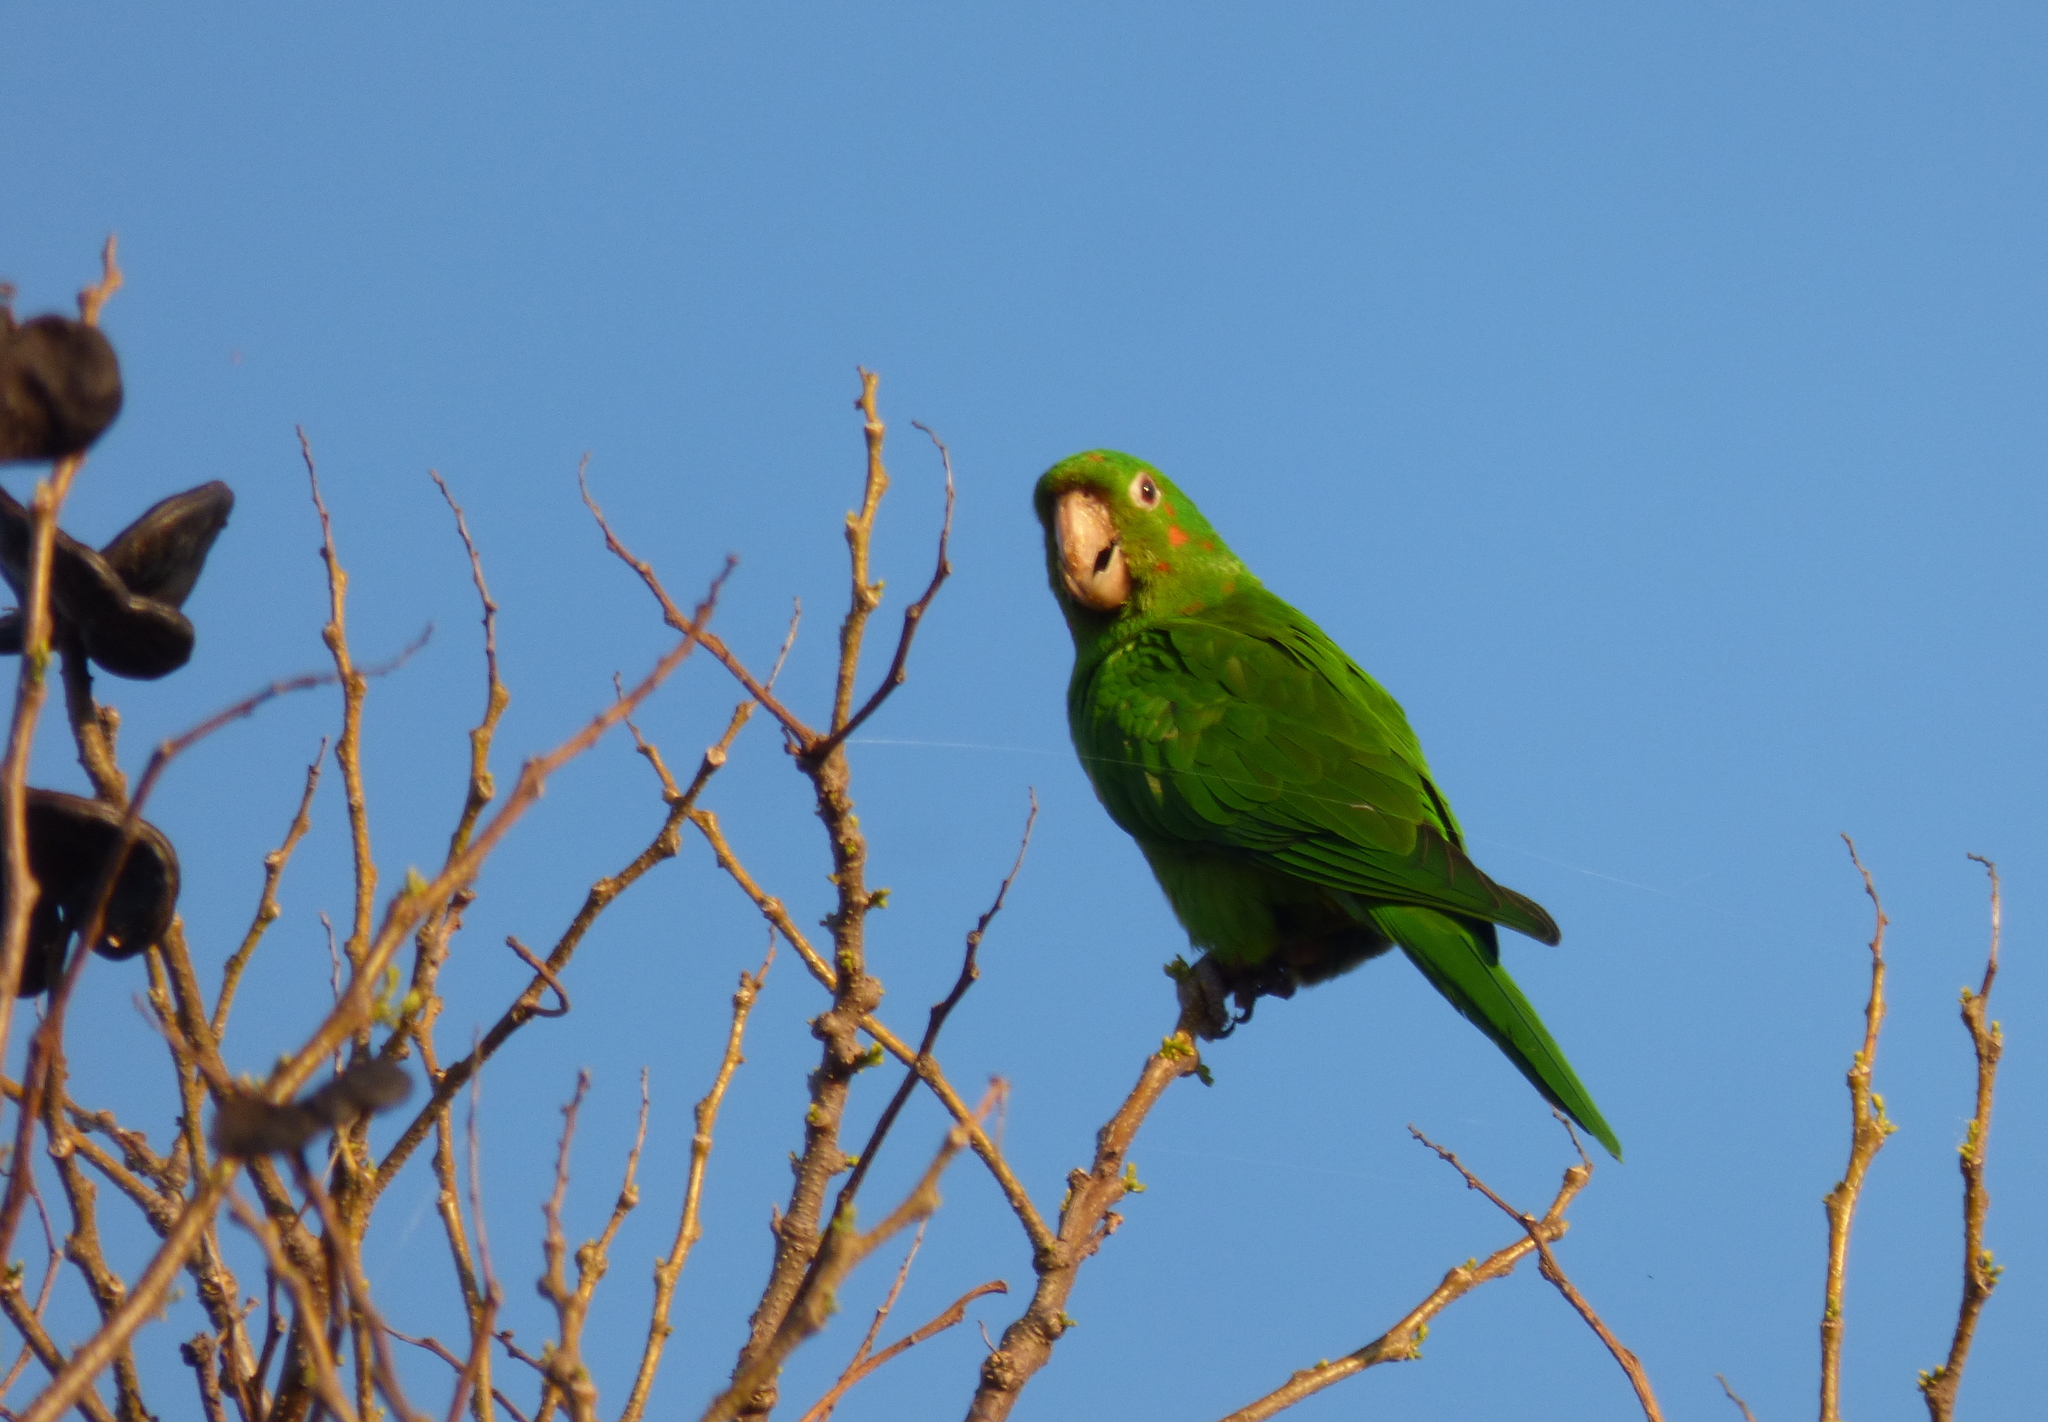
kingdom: Animalia
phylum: Chordata
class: Aves
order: Psittaciformes
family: Psittacidae
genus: Aratinga
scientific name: Aratinga leucophthalma
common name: White-eyed parakeet
